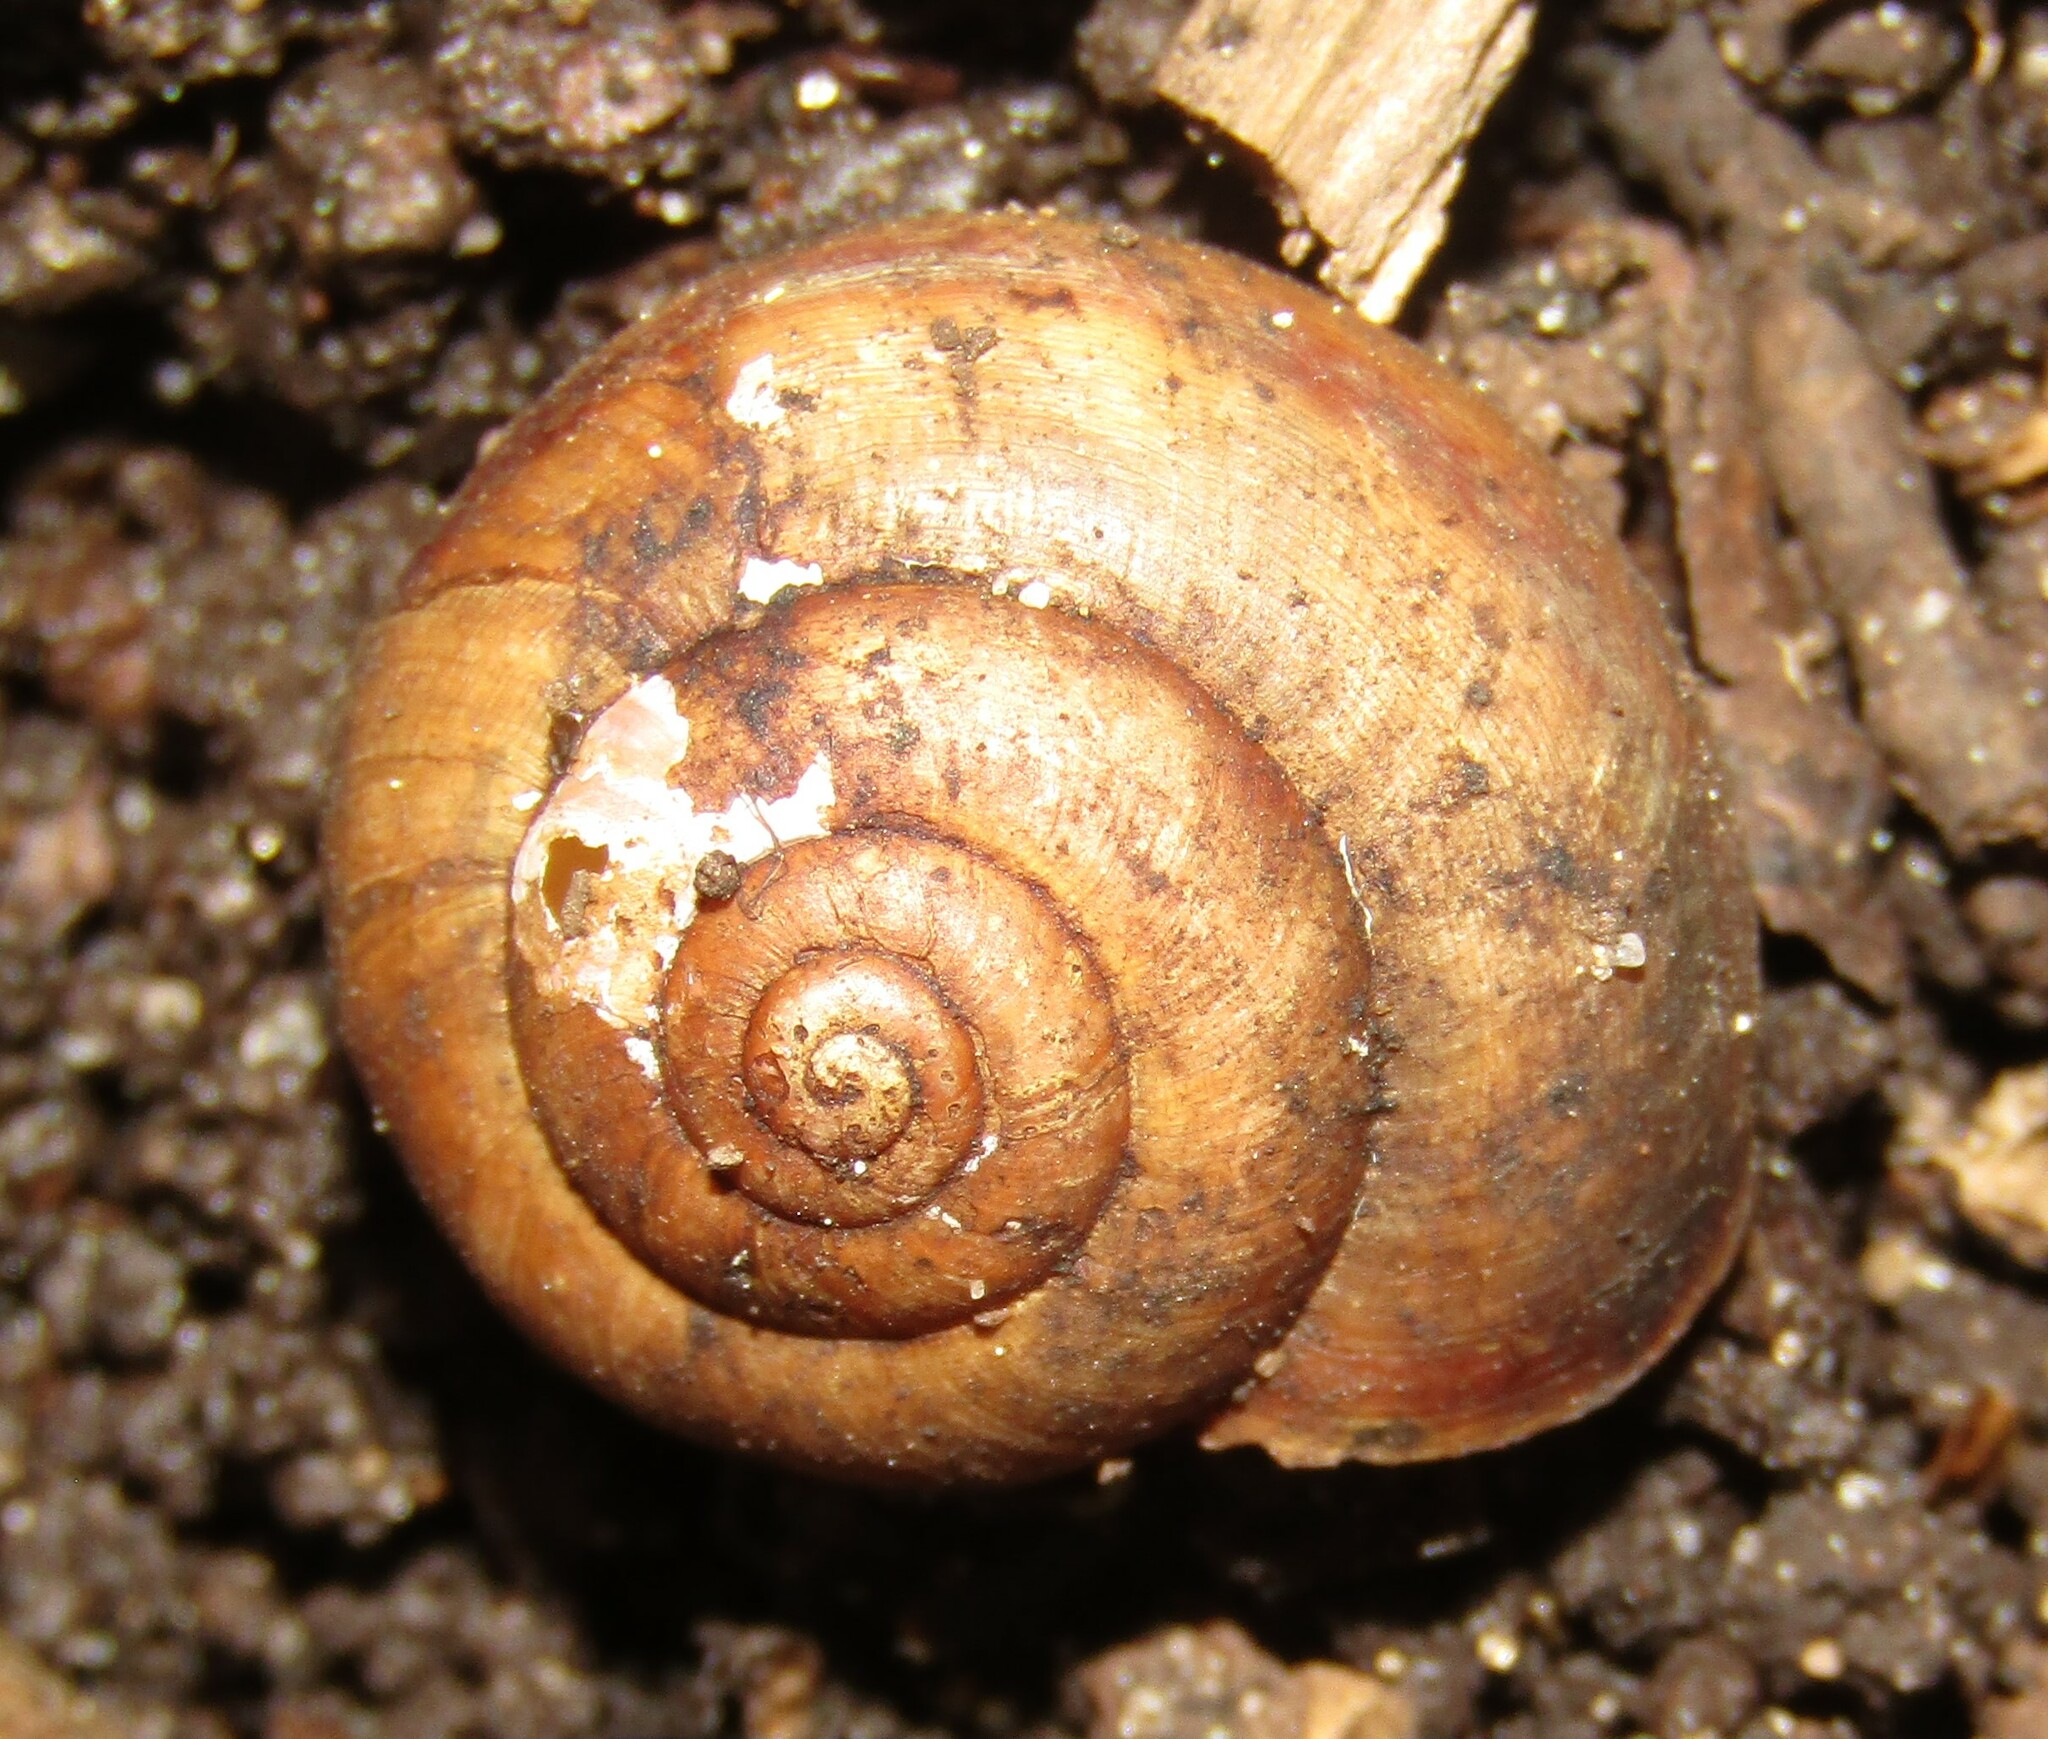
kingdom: Animalia
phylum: Mollusca
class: Gastropoda
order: Stylommatophora
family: Camaenidae
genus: Fruticicola
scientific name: Fruticicola fruticum
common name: Bush snail
